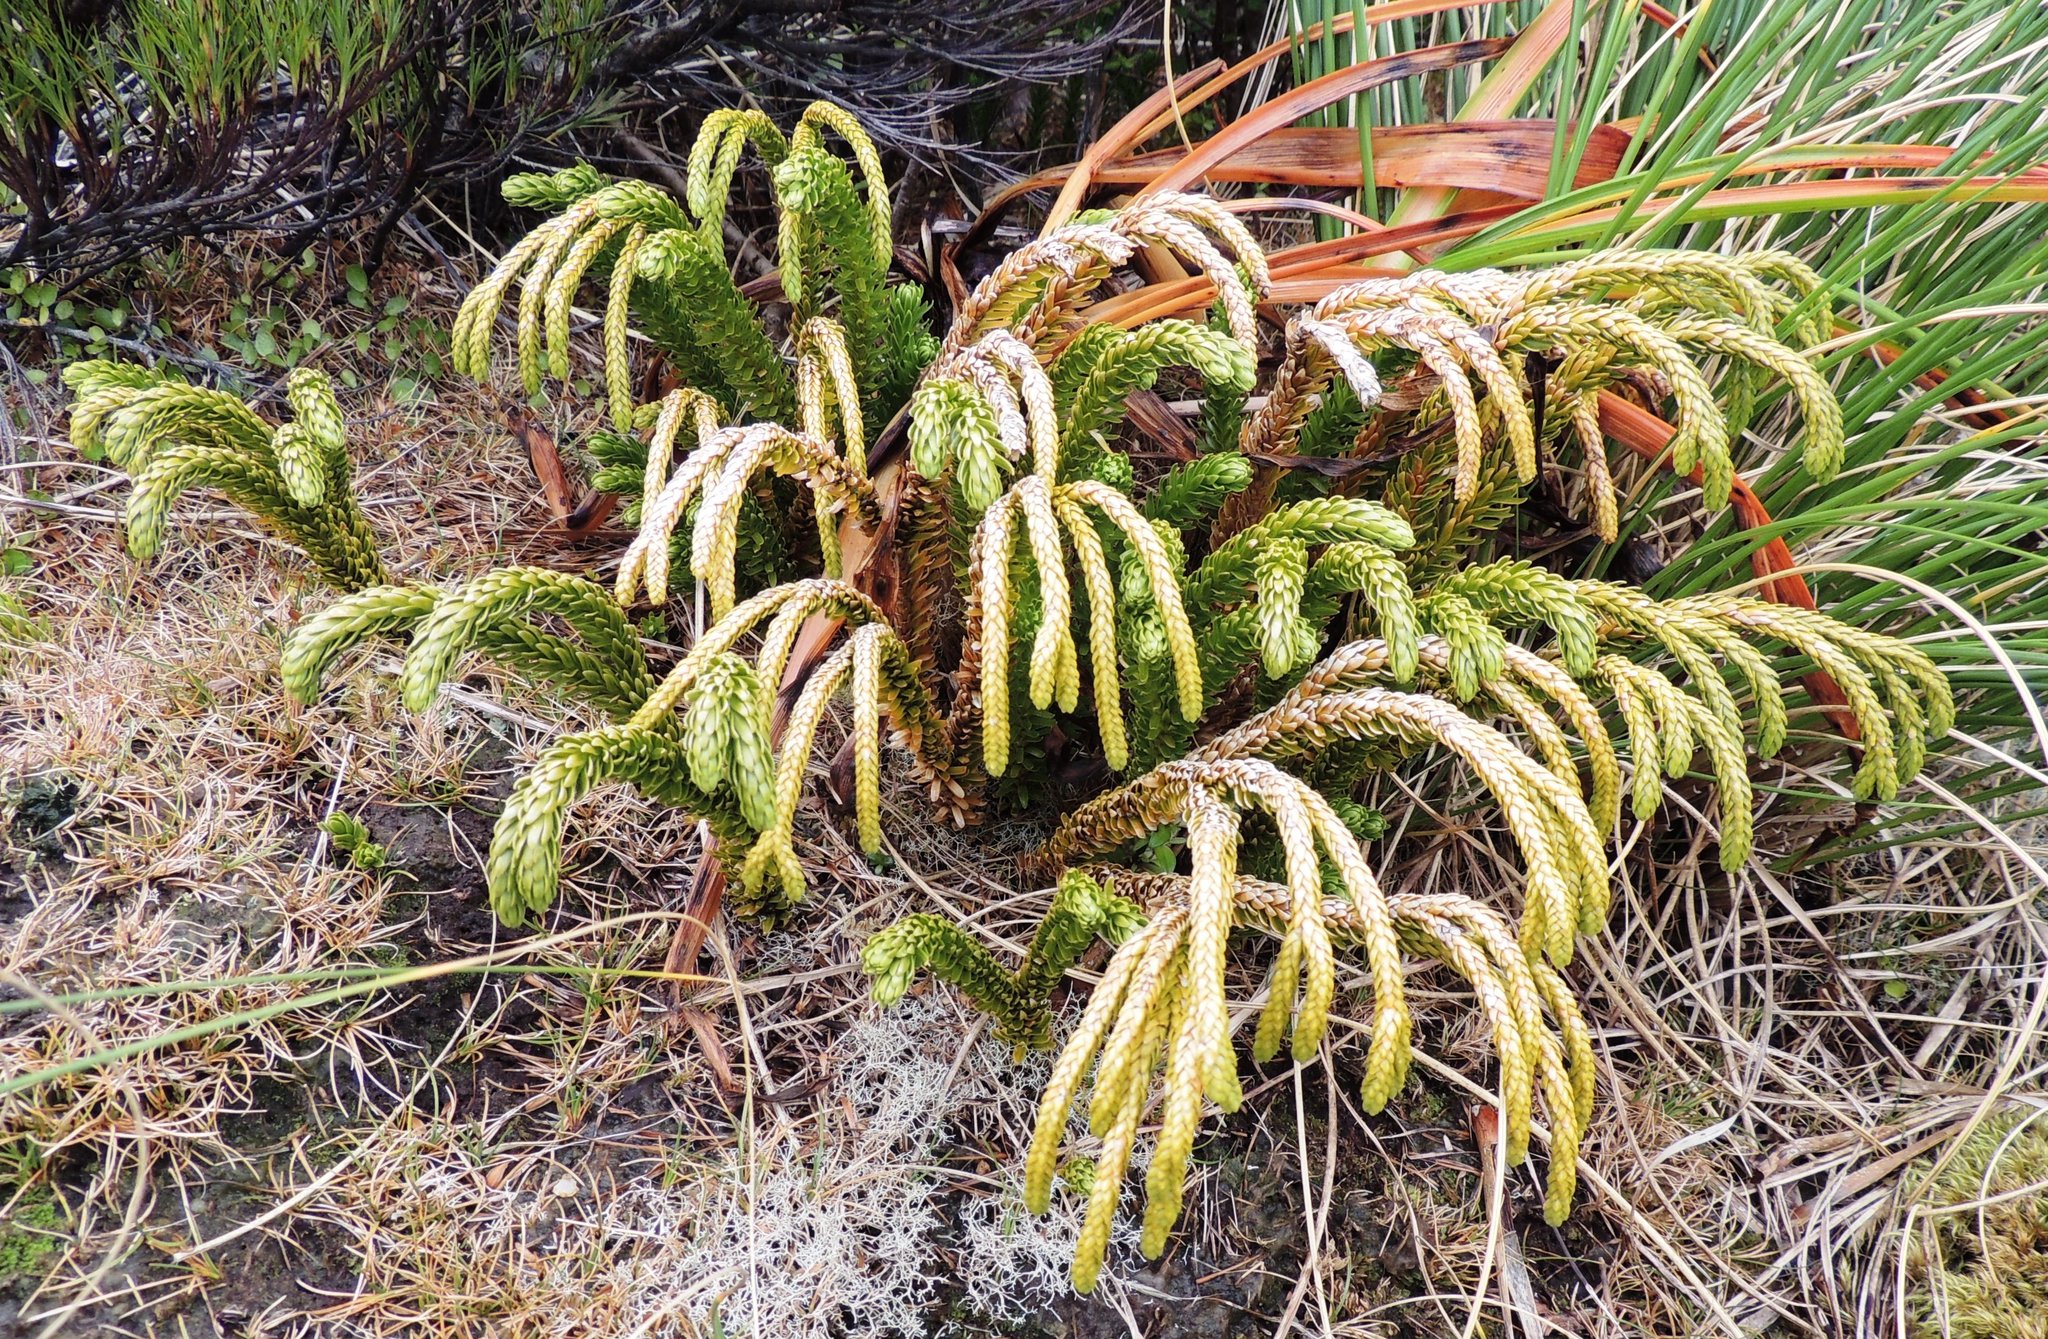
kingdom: Plantae
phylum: Tracheophyta
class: Lycopodiopsida
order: Lycopodiales
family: Lycopodiaceae
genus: Phlegmariurus
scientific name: Phlegmariurus varius
